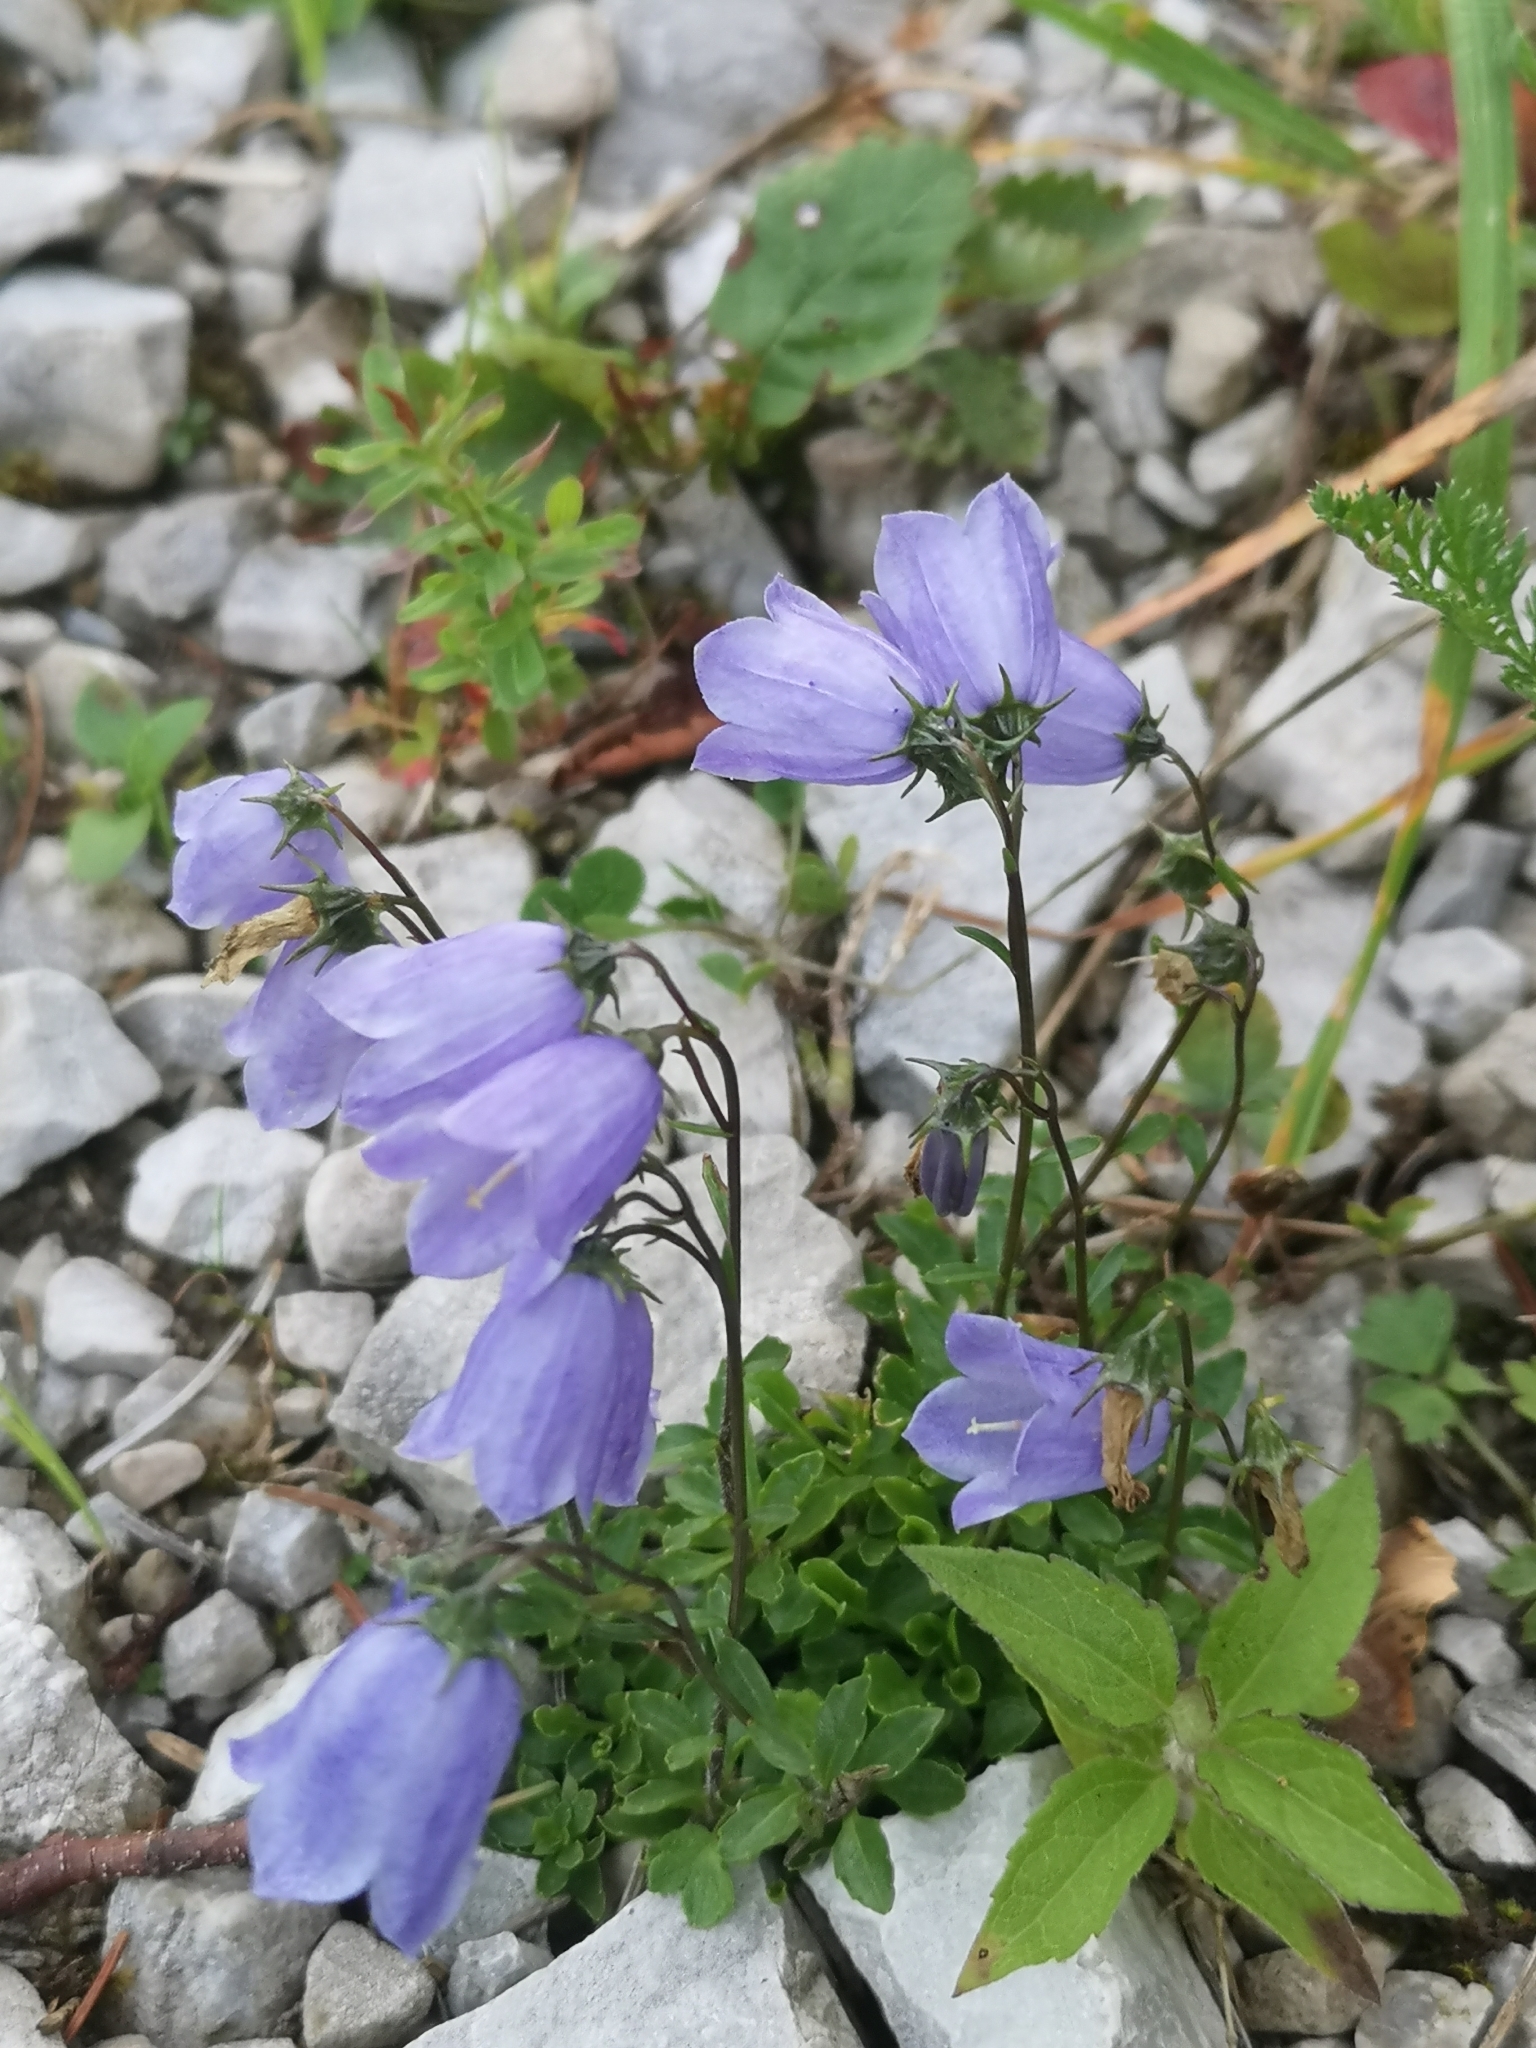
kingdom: Plantae
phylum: Tracheophyta
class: Magnoliopsida
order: Asterales
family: Campanulaceae
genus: Campanula
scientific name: Campanula cochleariifolia
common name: Fairies'-thimbles
